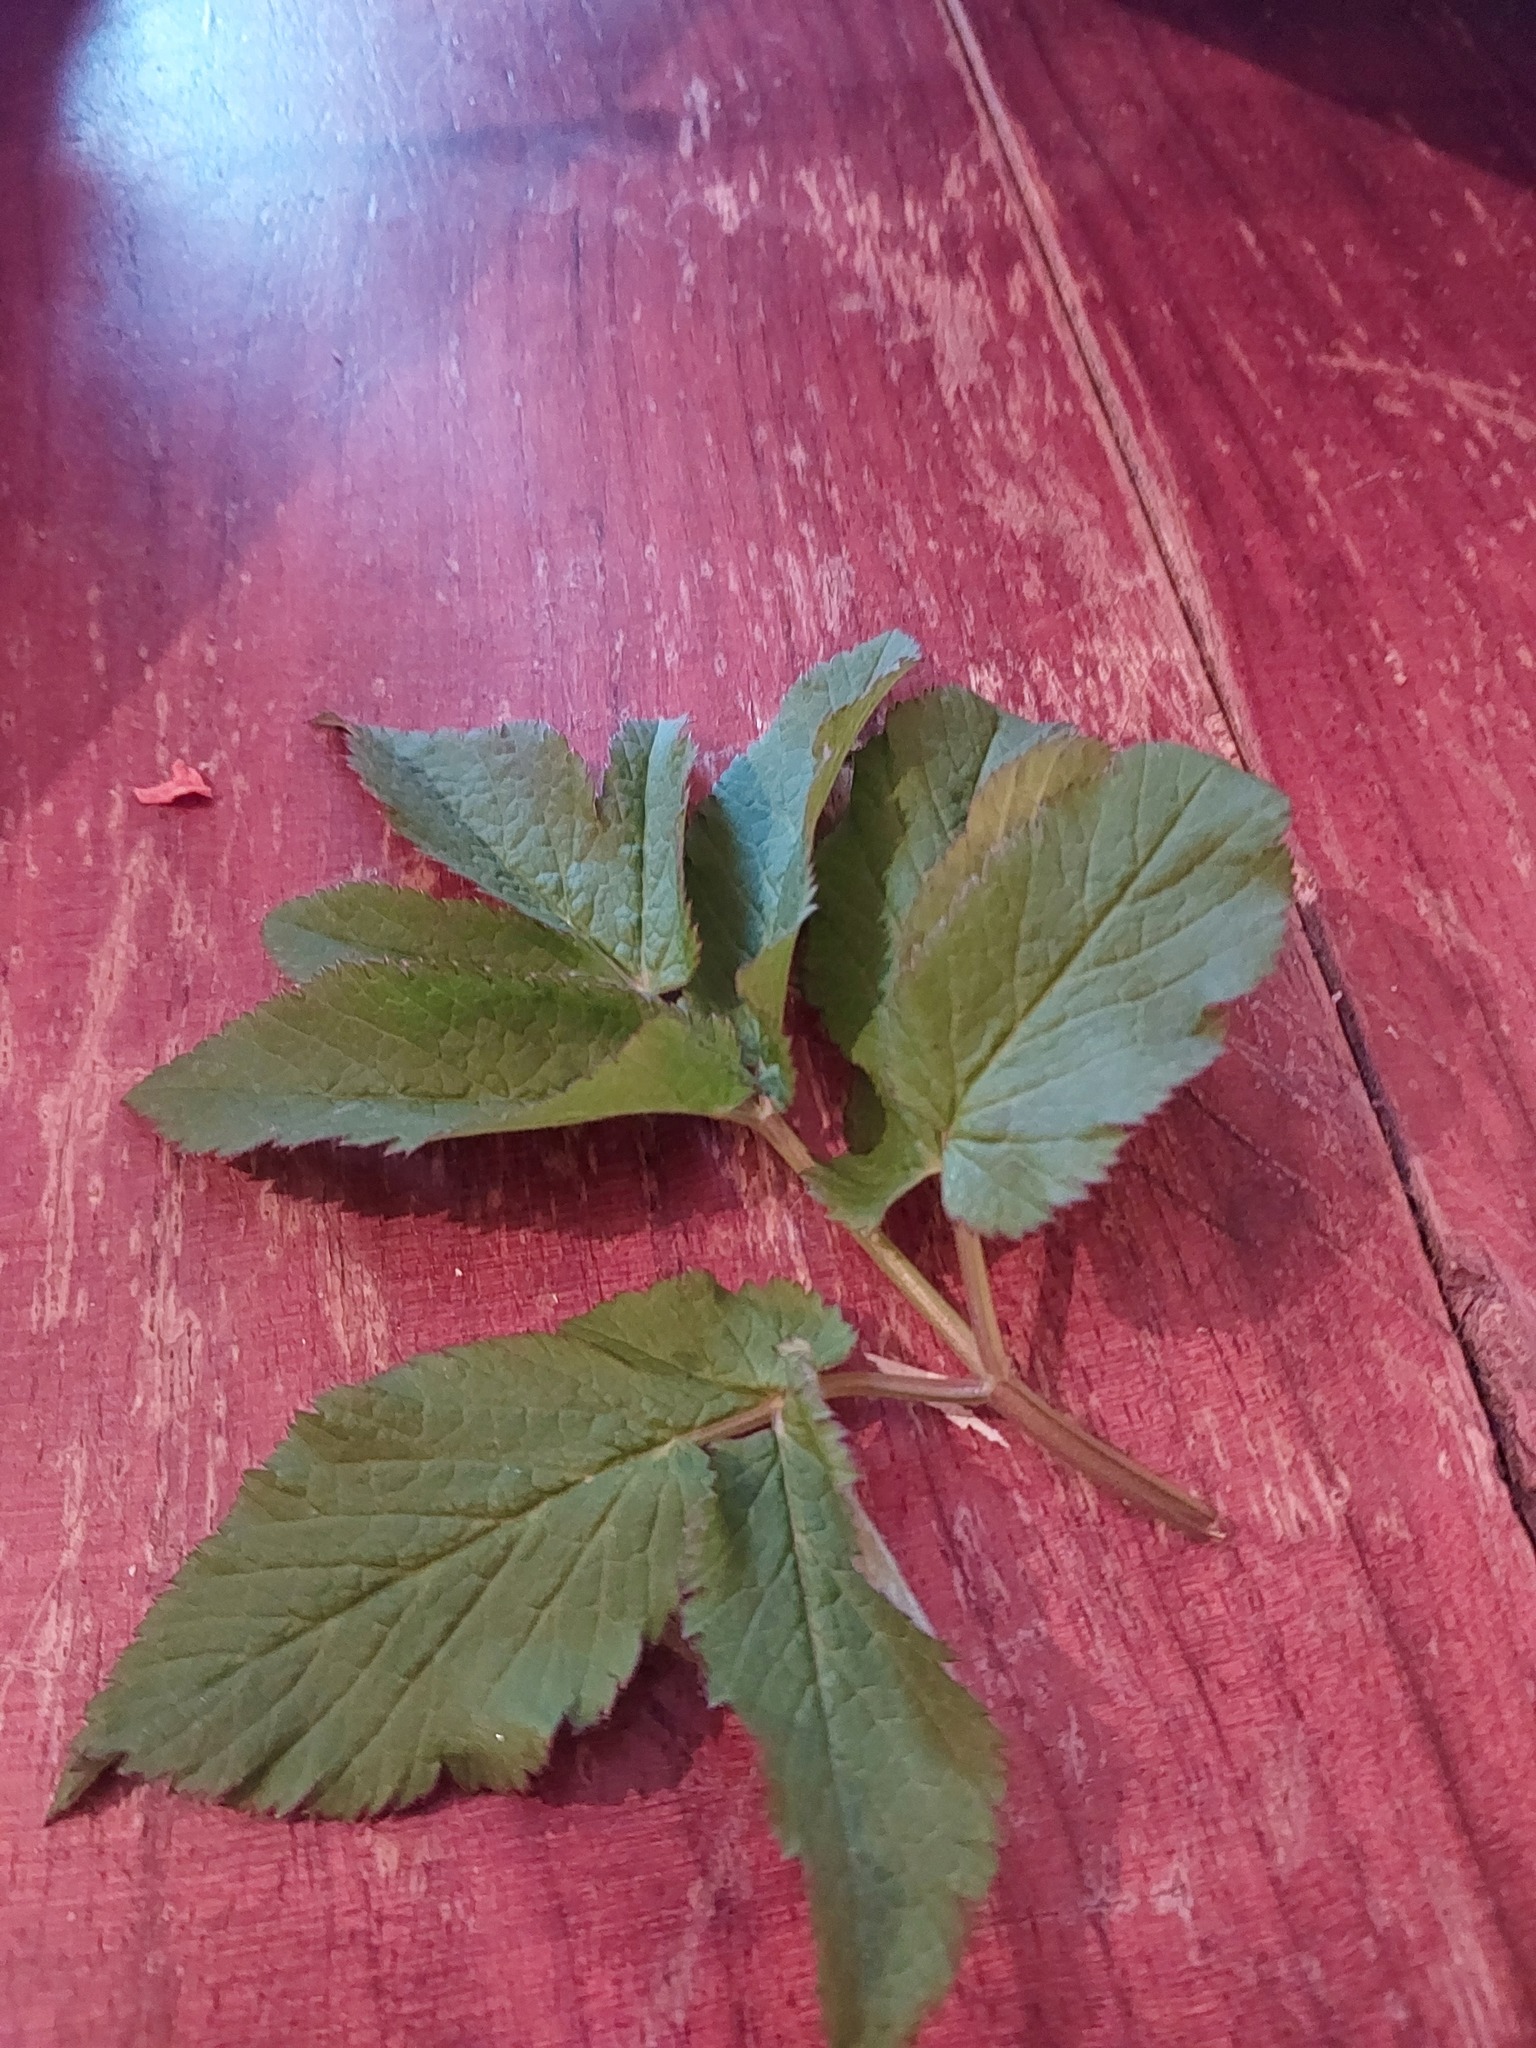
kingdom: Plantae
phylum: Tracheophyta
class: Magnoliopsida
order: Apiales
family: Apiaceae
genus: Aegopodium
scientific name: Aegopodium podagraria
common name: Ground-elder
